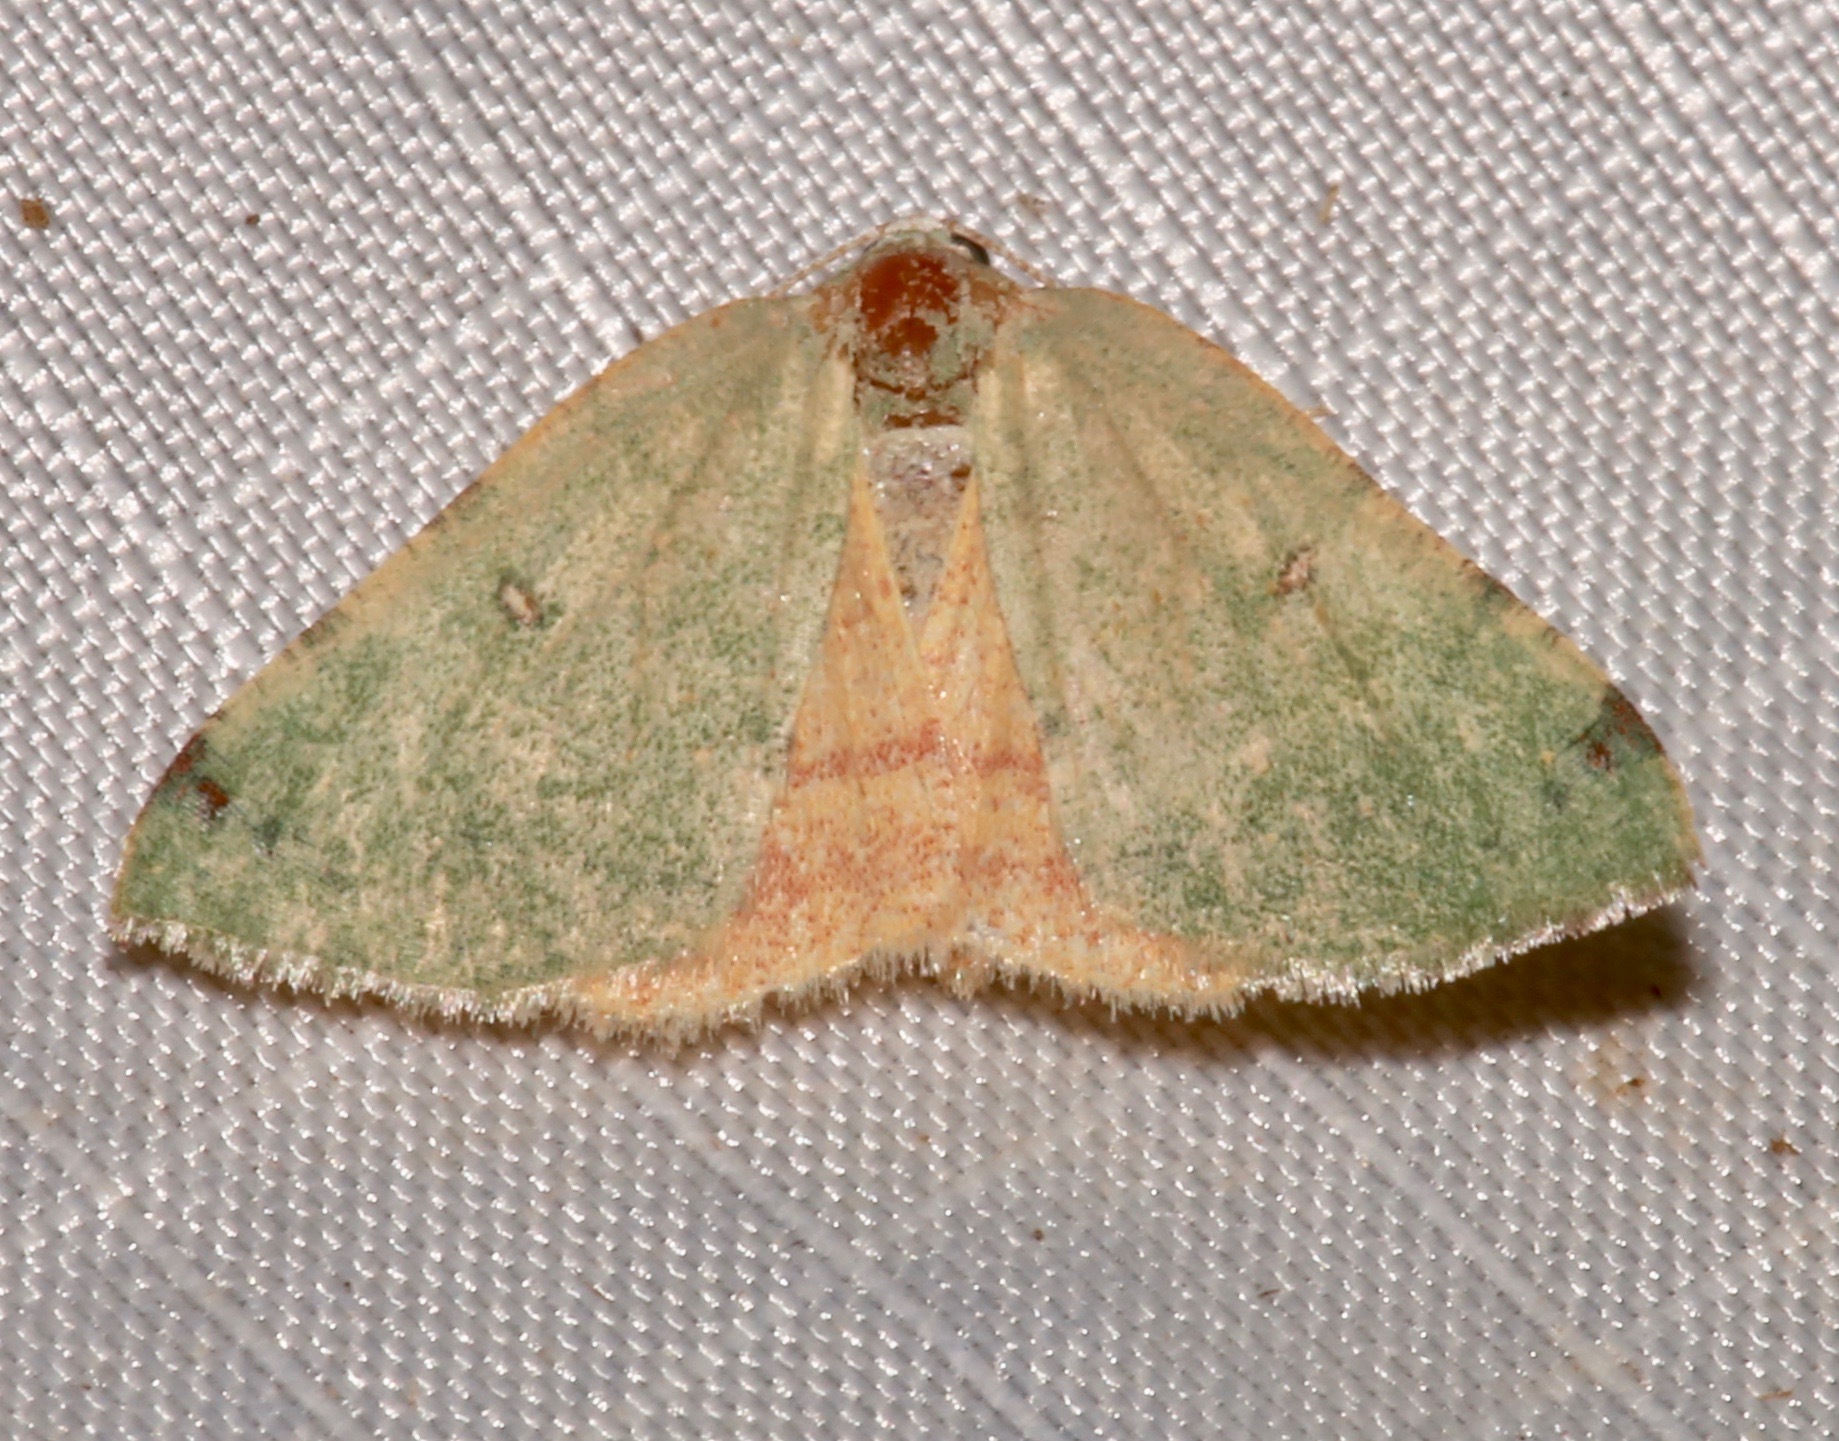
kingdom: Animalia
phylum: Arthropoda
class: Insecta
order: Lepidoptera
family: Geometridae
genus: Chloraspilates
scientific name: Chloraspilates bicoloraria
